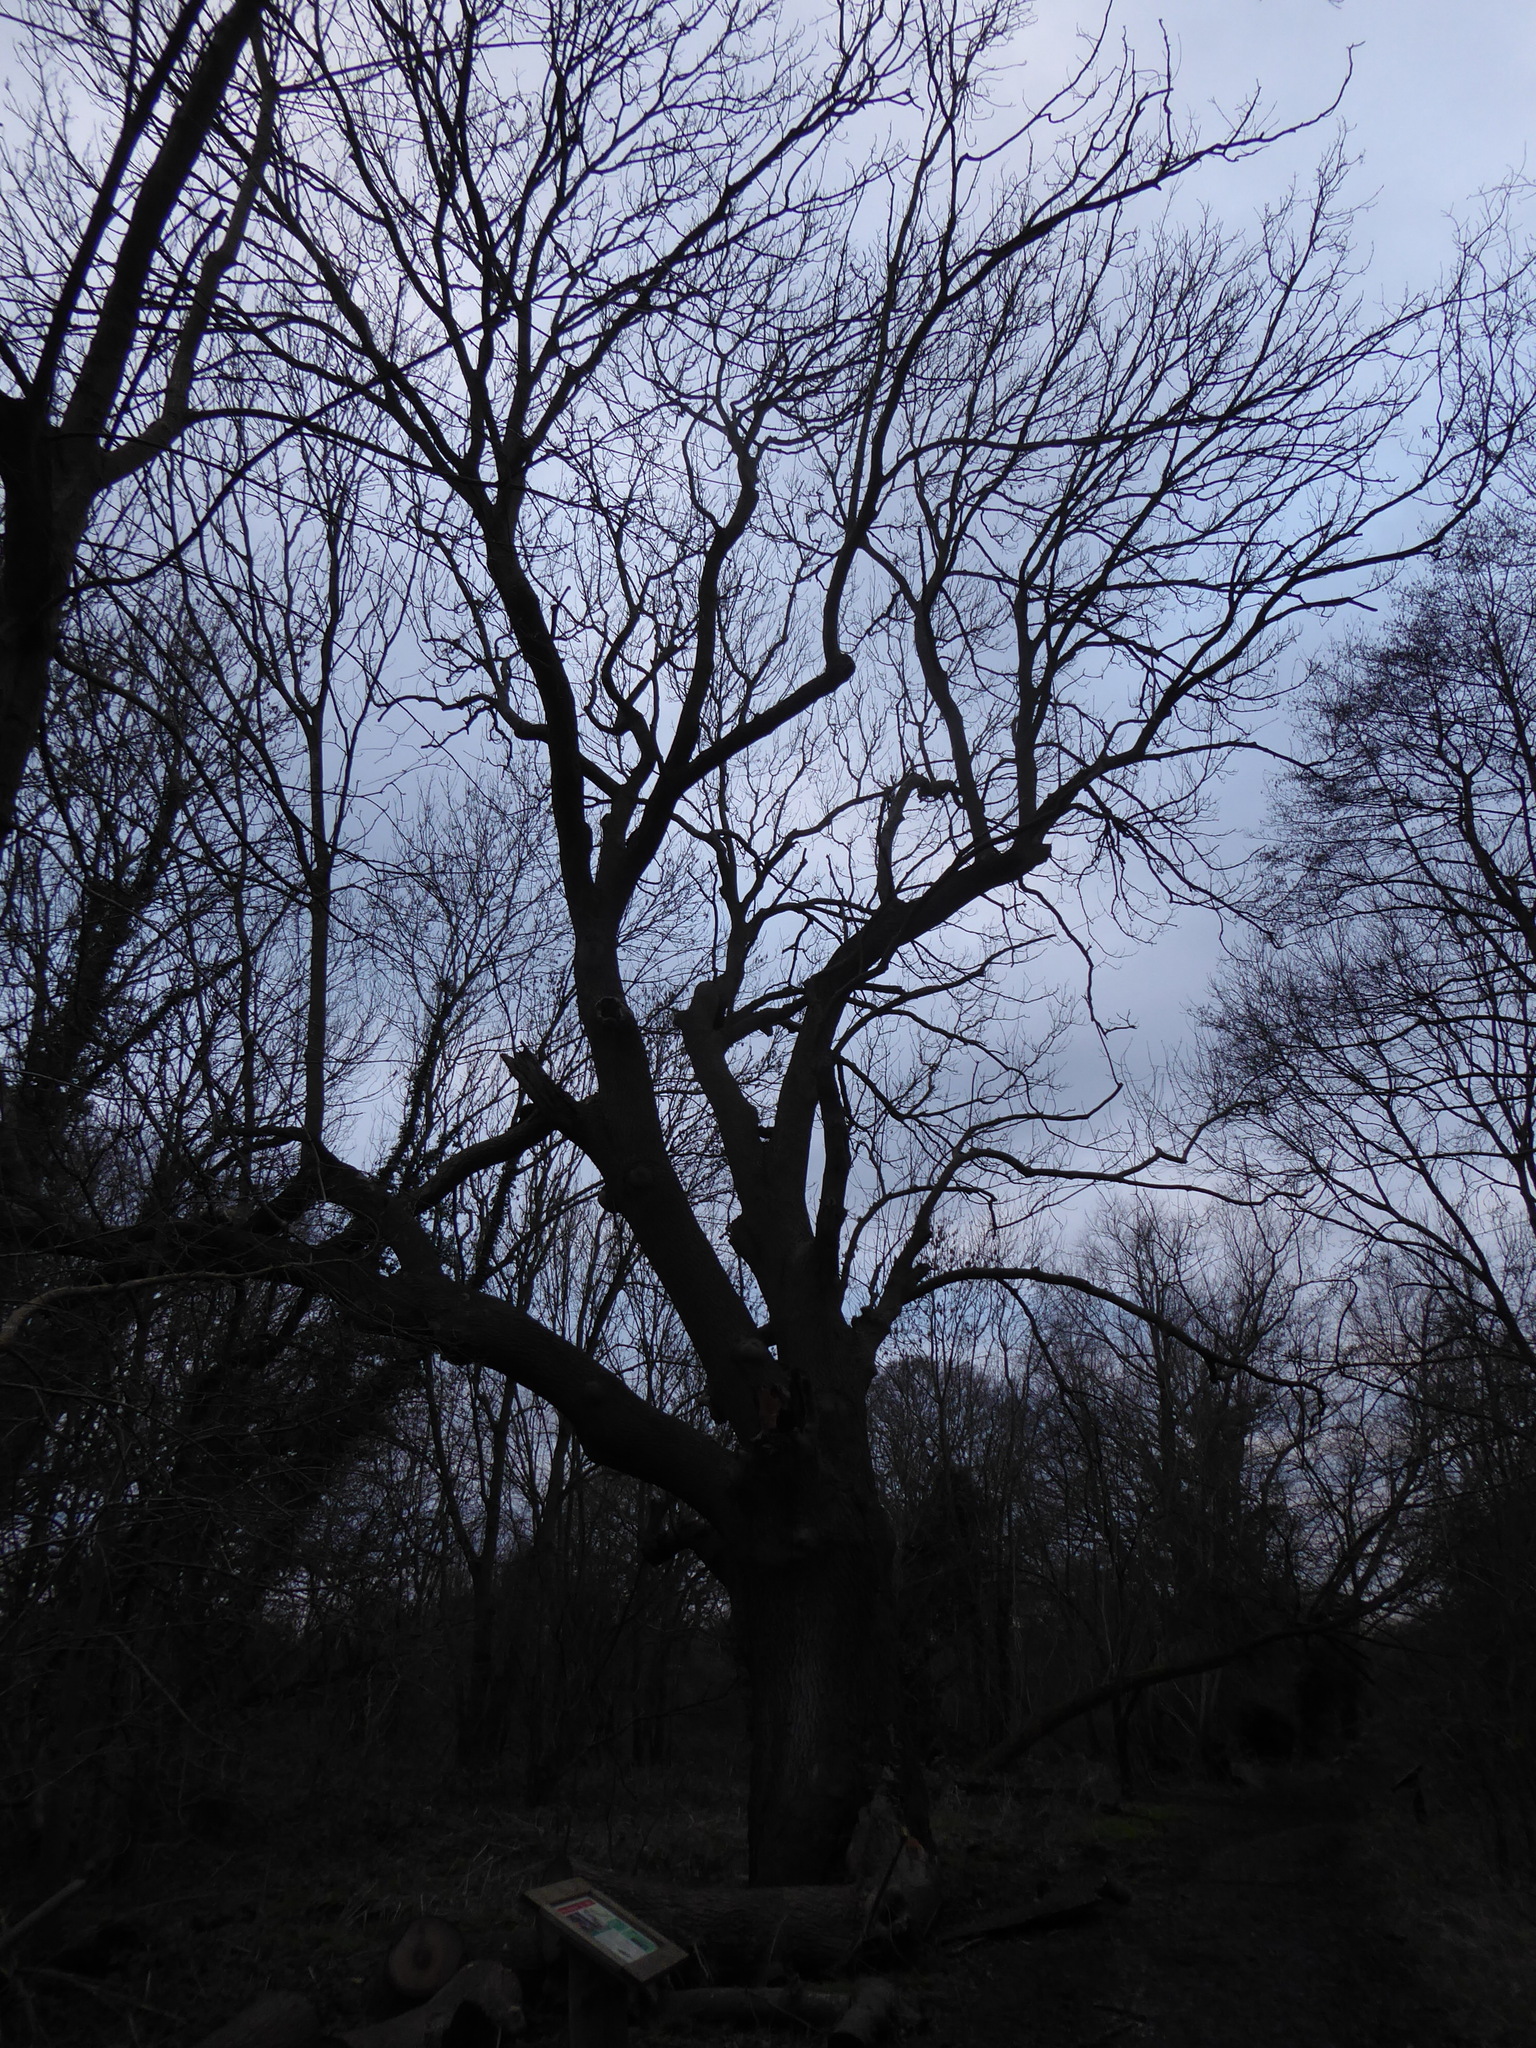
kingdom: Plantae
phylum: Tracheophyta
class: Magnoliopsida
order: Lamiales
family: Oleaceae
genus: Fraxinus
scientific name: Fraxinus excelsior
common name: European ash
